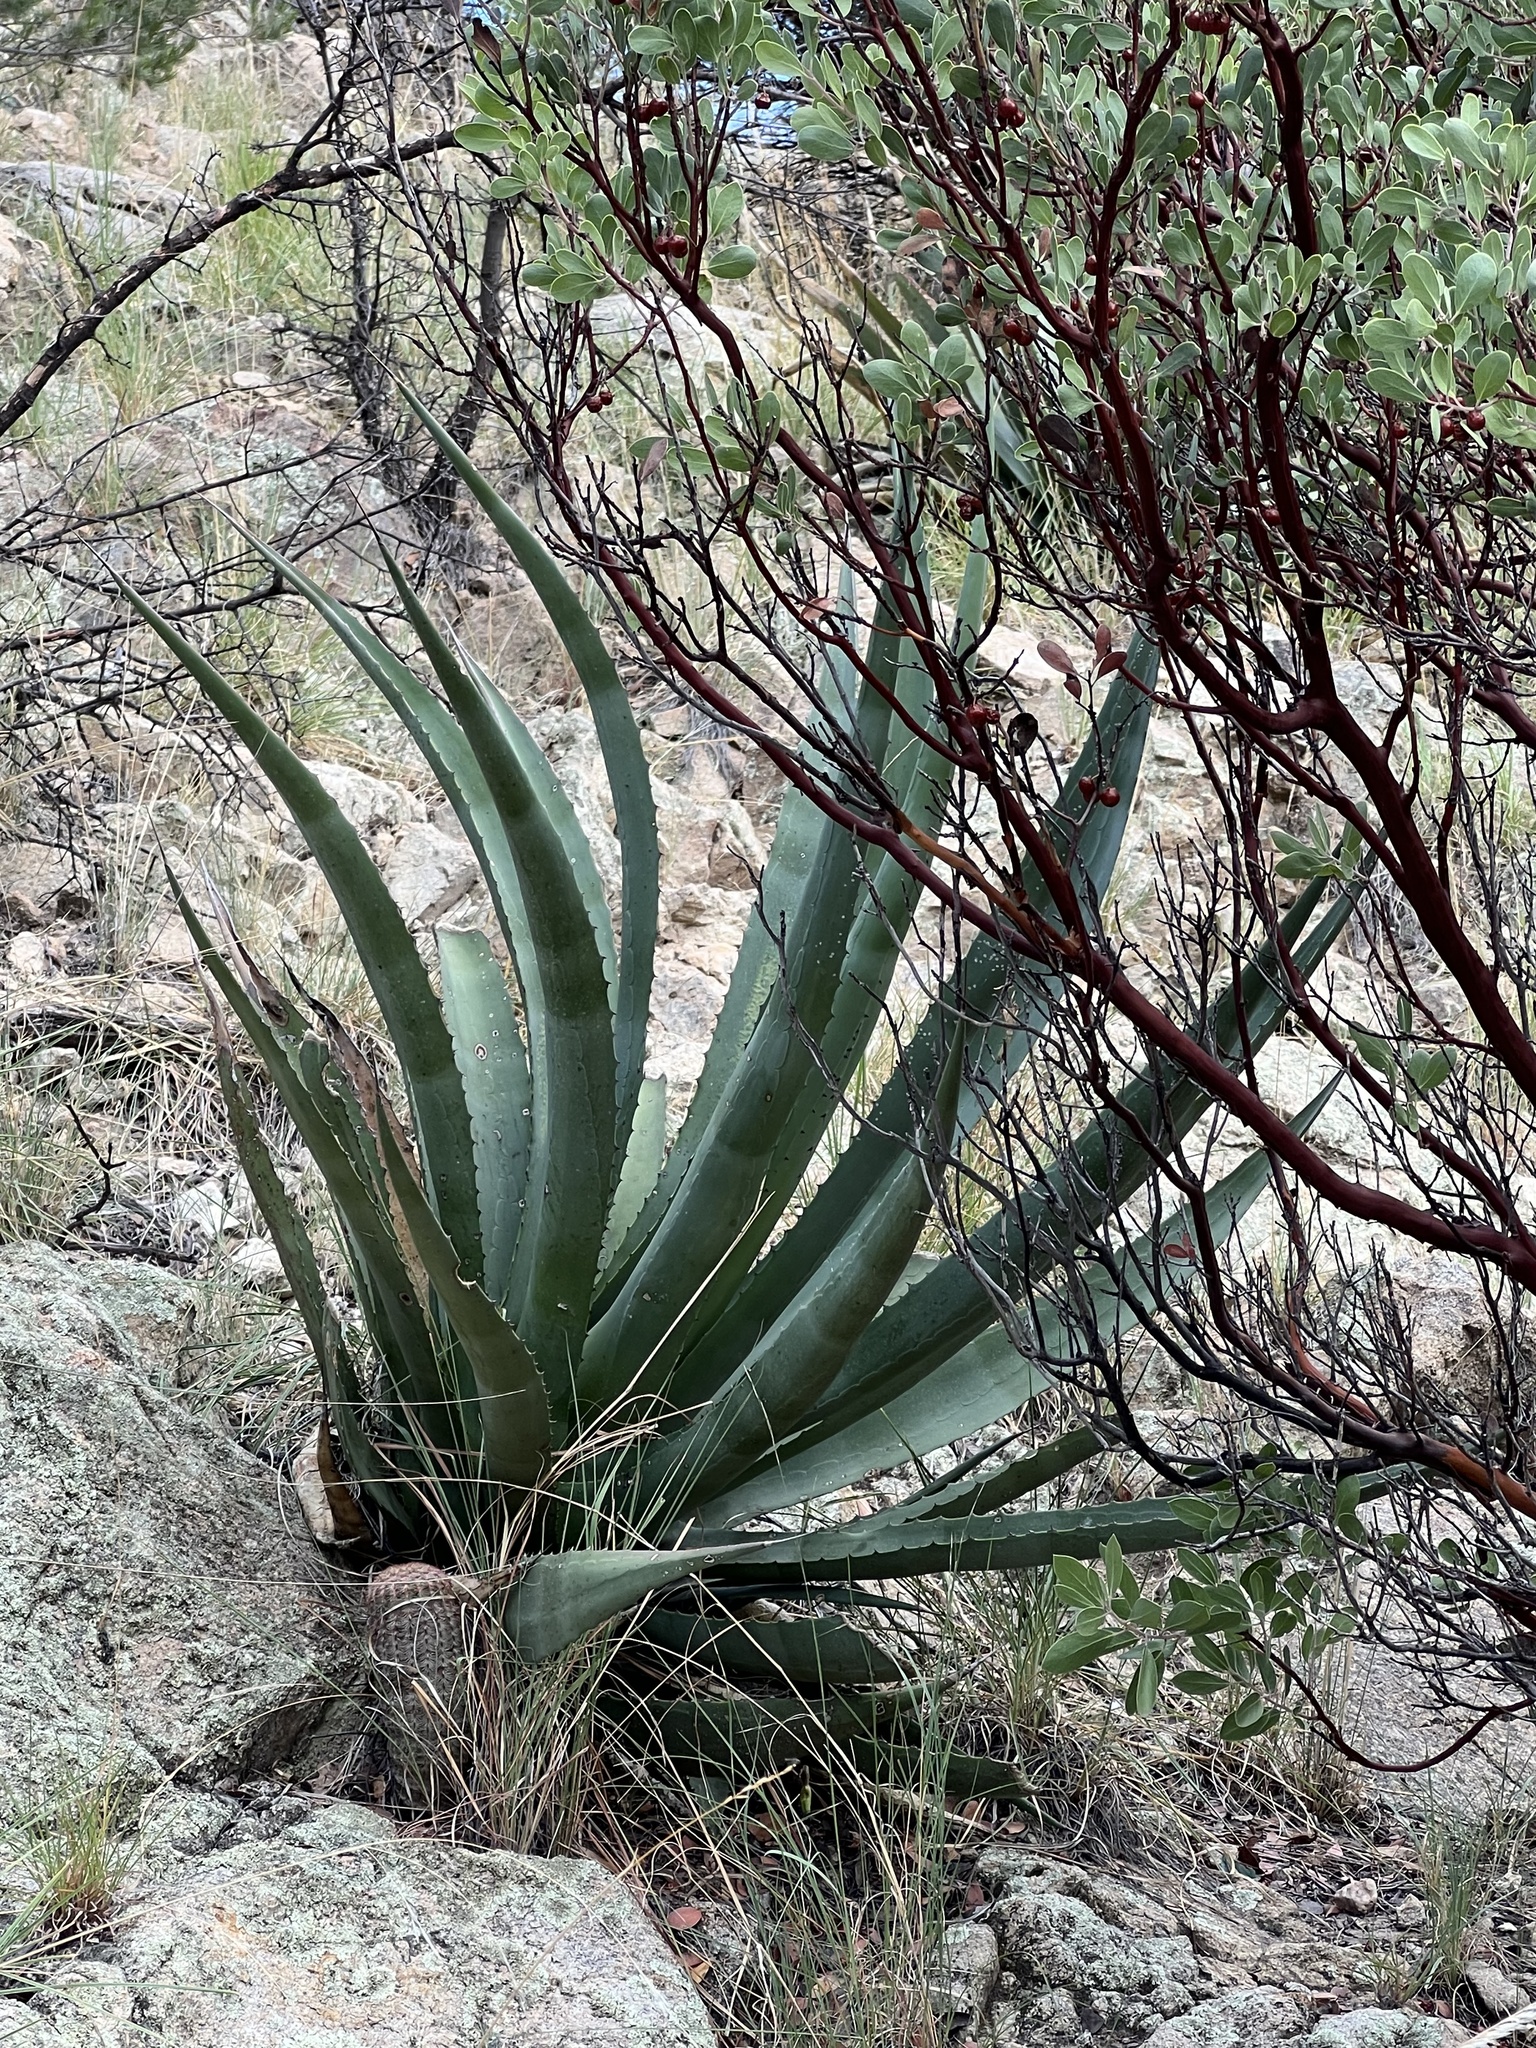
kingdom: Plantae
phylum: Tracheophyta
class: Liliopsida
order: Asparagales
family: Asparagaceae
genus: Agave
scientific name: Agave palmeri
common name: Palmer agave
